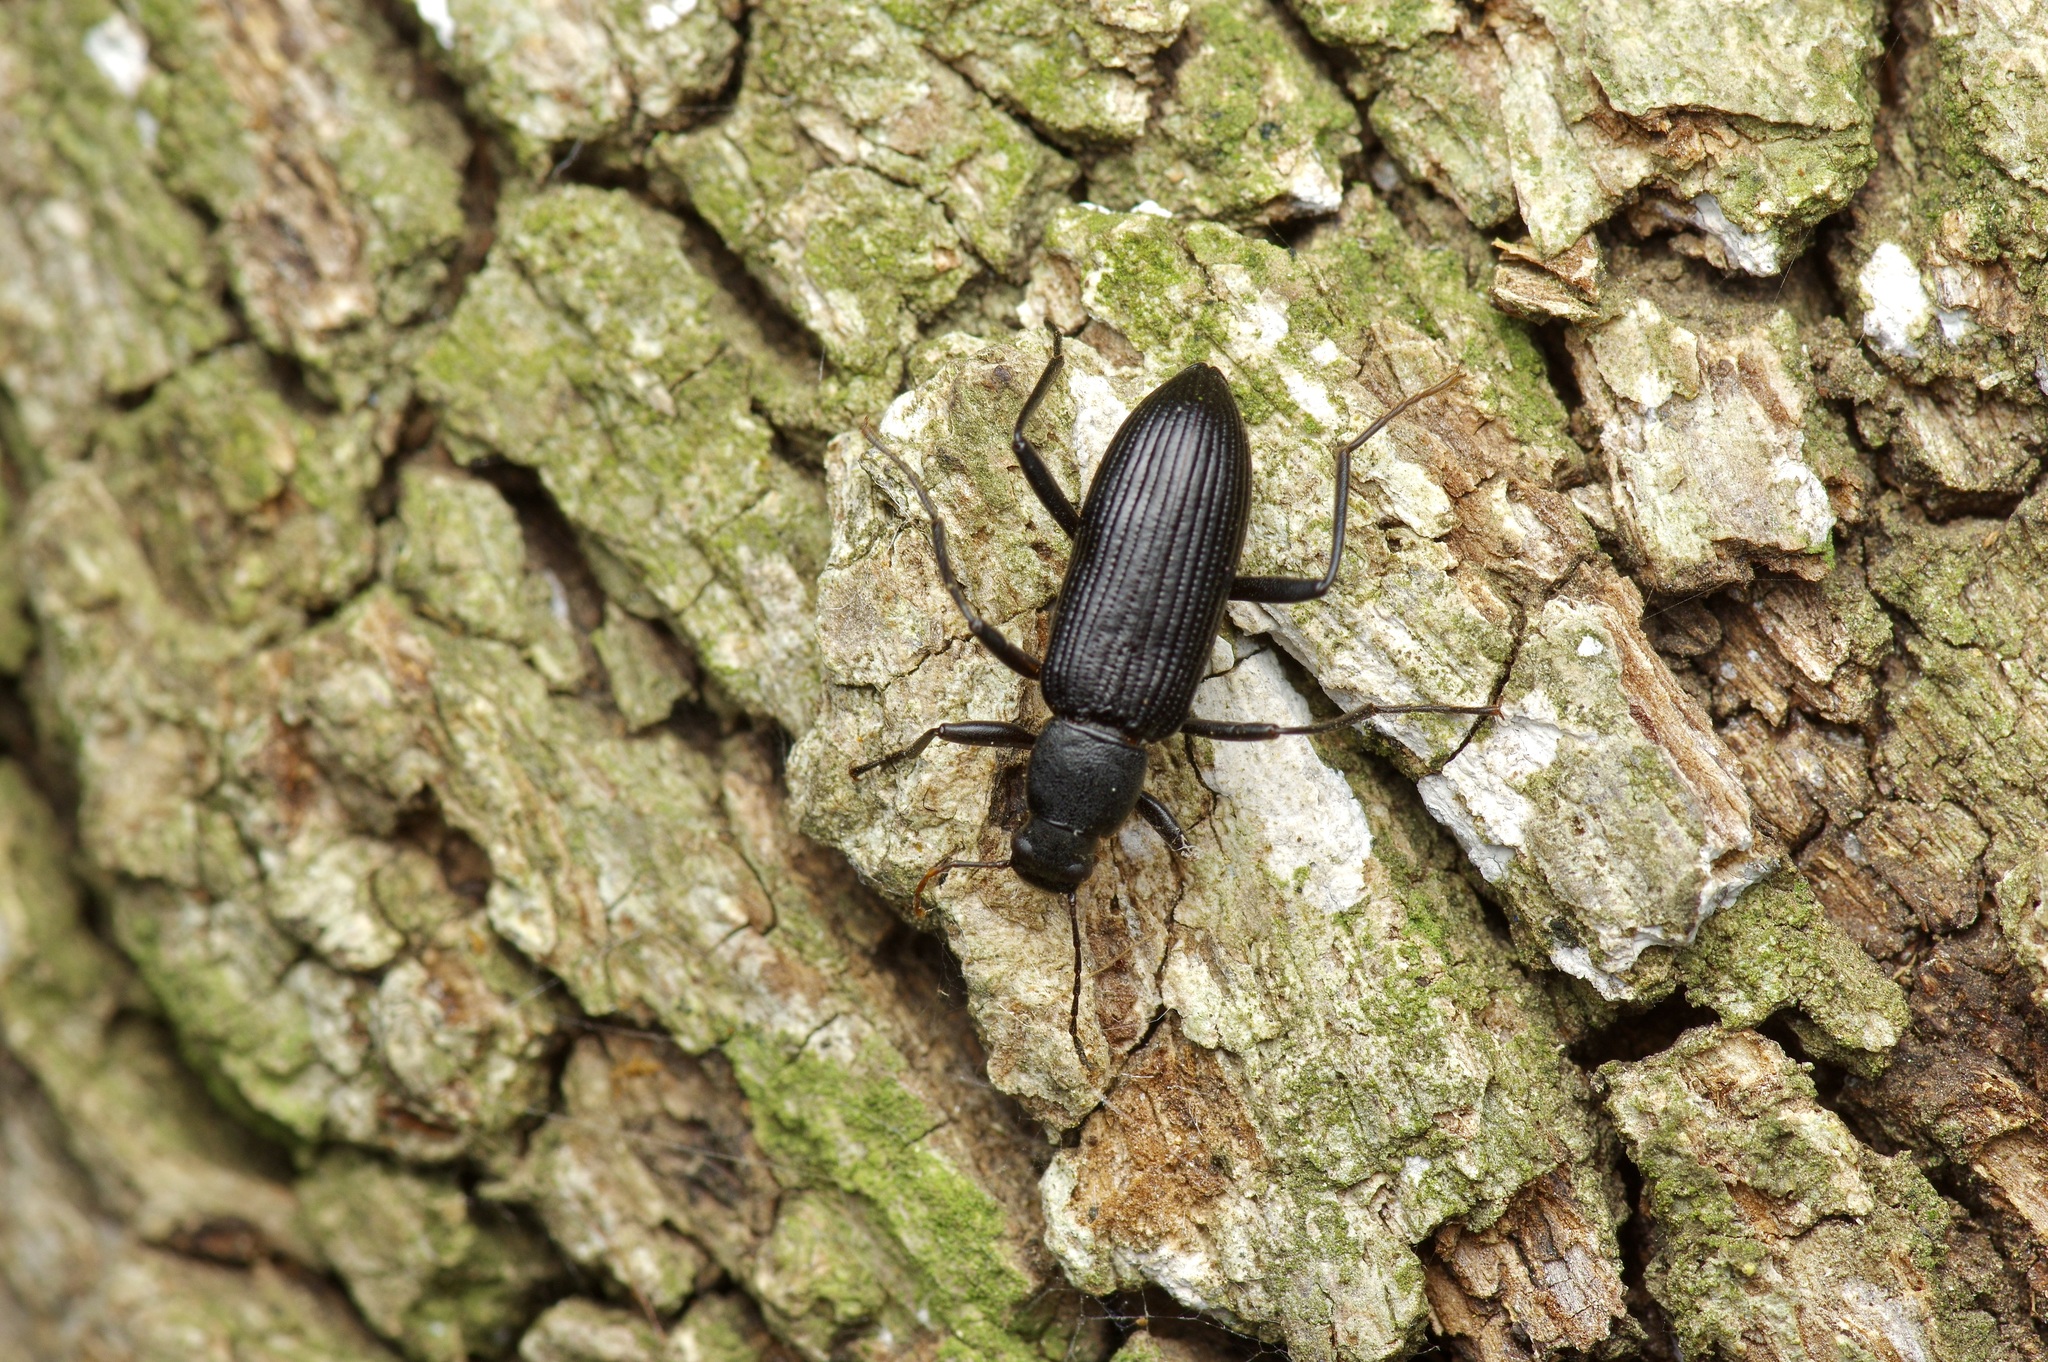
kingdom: Animalia
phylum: Arthropoda
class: Insecta
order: Coleoptera
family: Tenebrionidae
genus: Strongylium
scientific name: Strongylium tenuicolle
